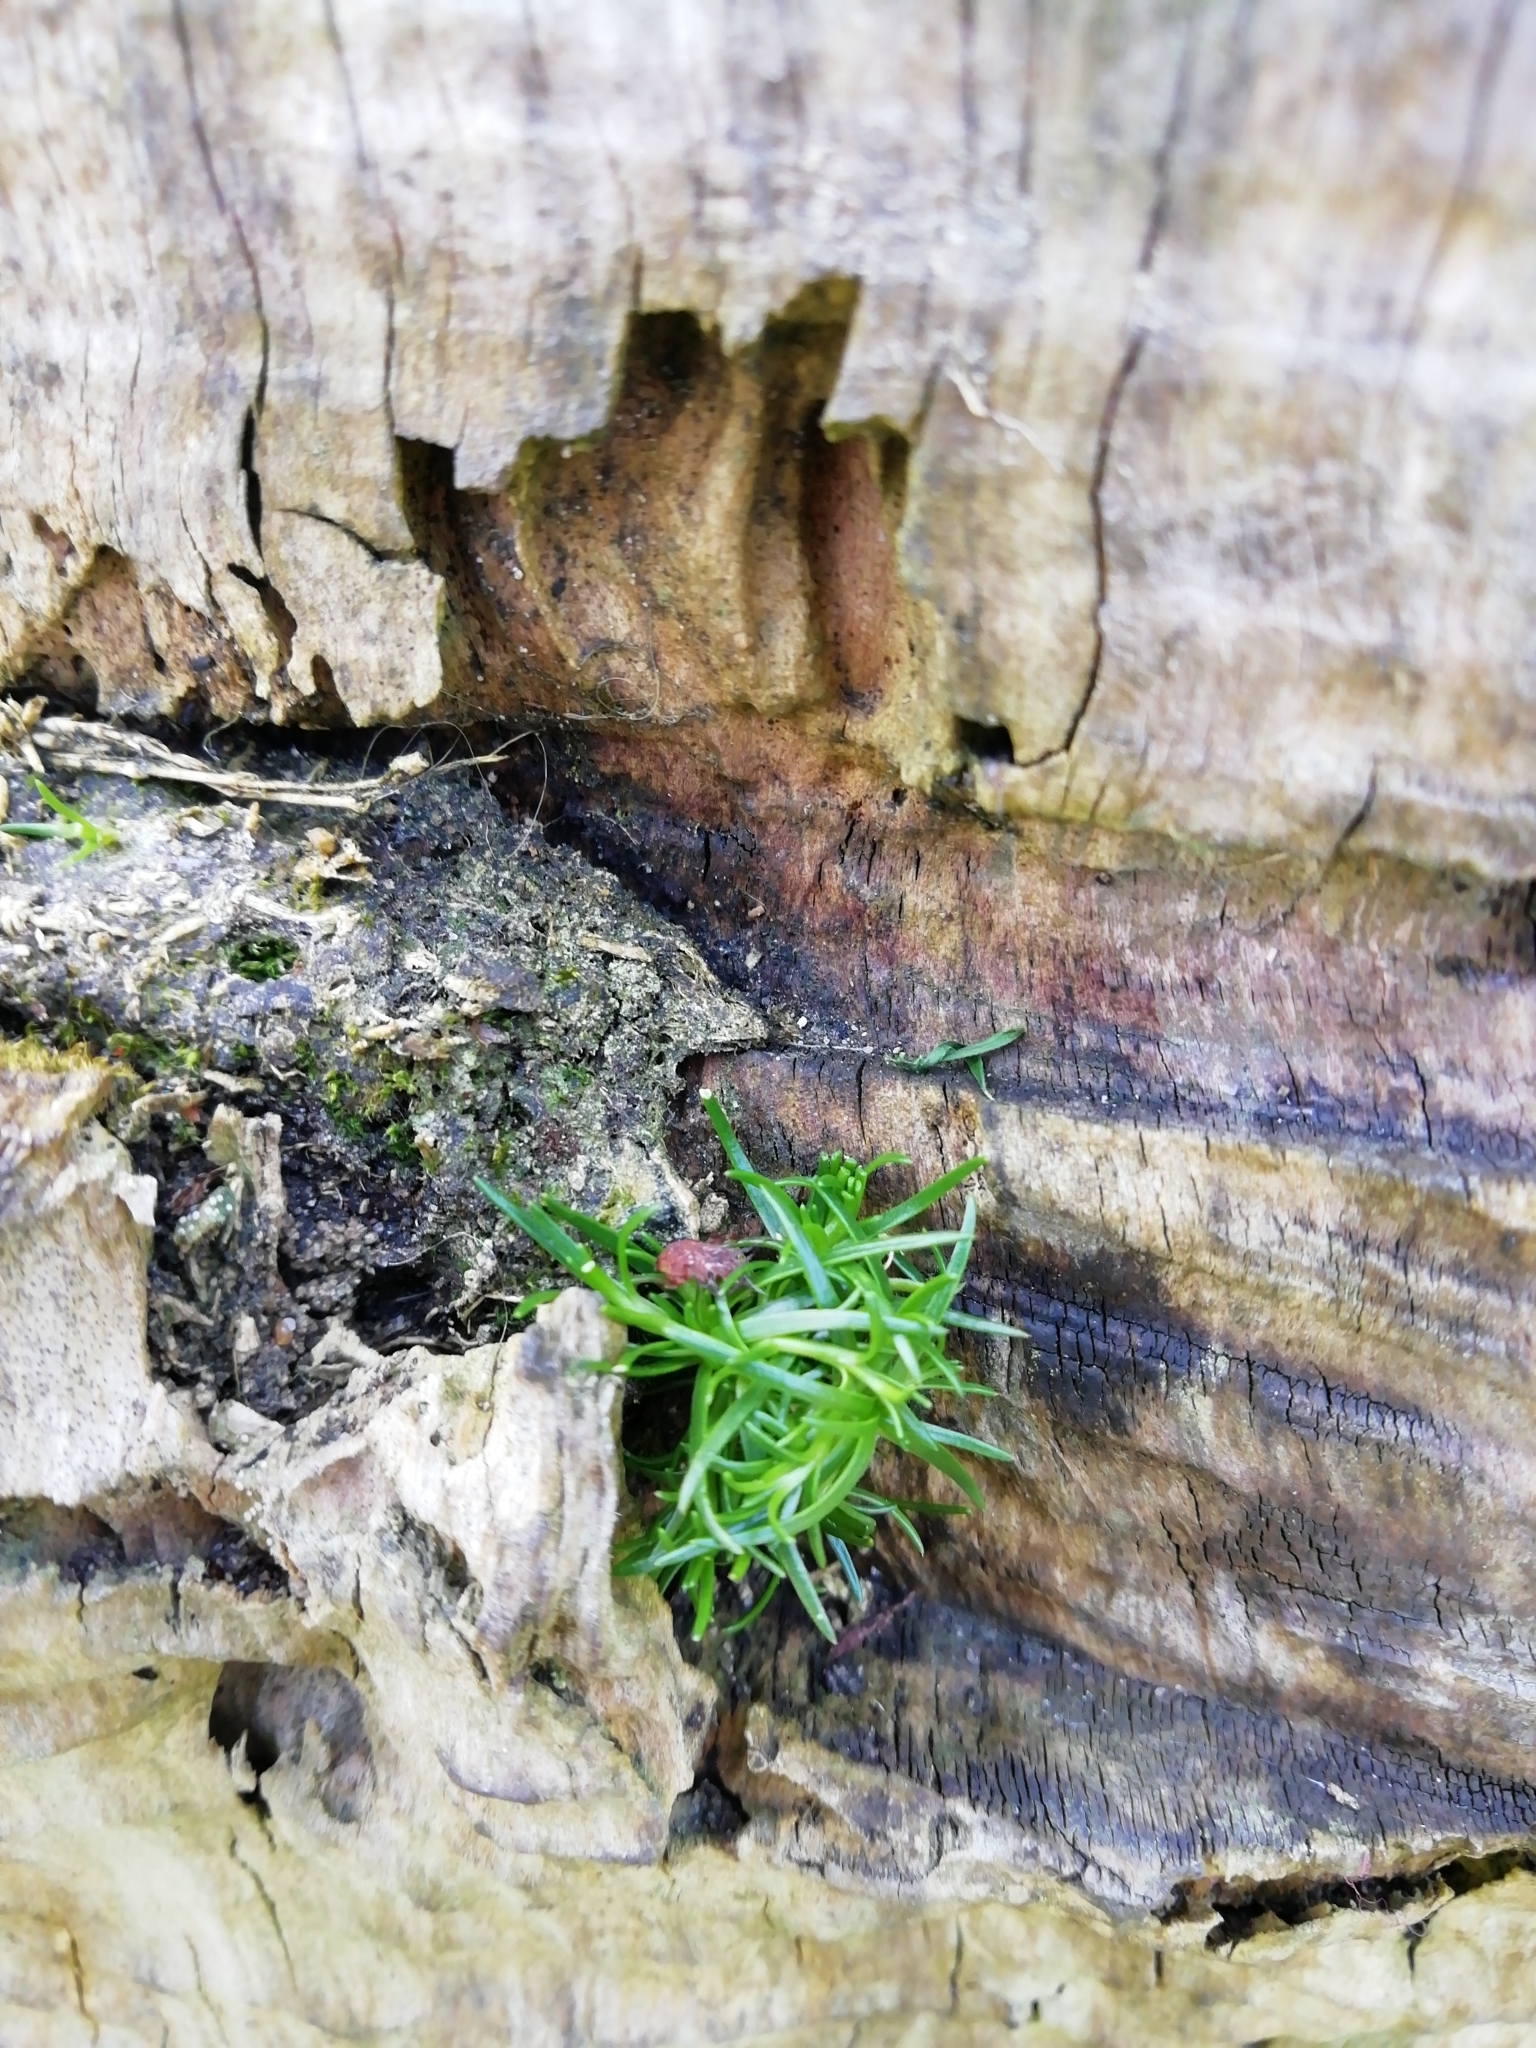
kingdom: Plantae
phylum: Tracheophyta
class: Magnoliopsida
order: Caryophyllales
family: Caryophyllaceae
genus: Sagina
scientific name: Sagina procumbens
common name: Procumbent pearlwort
